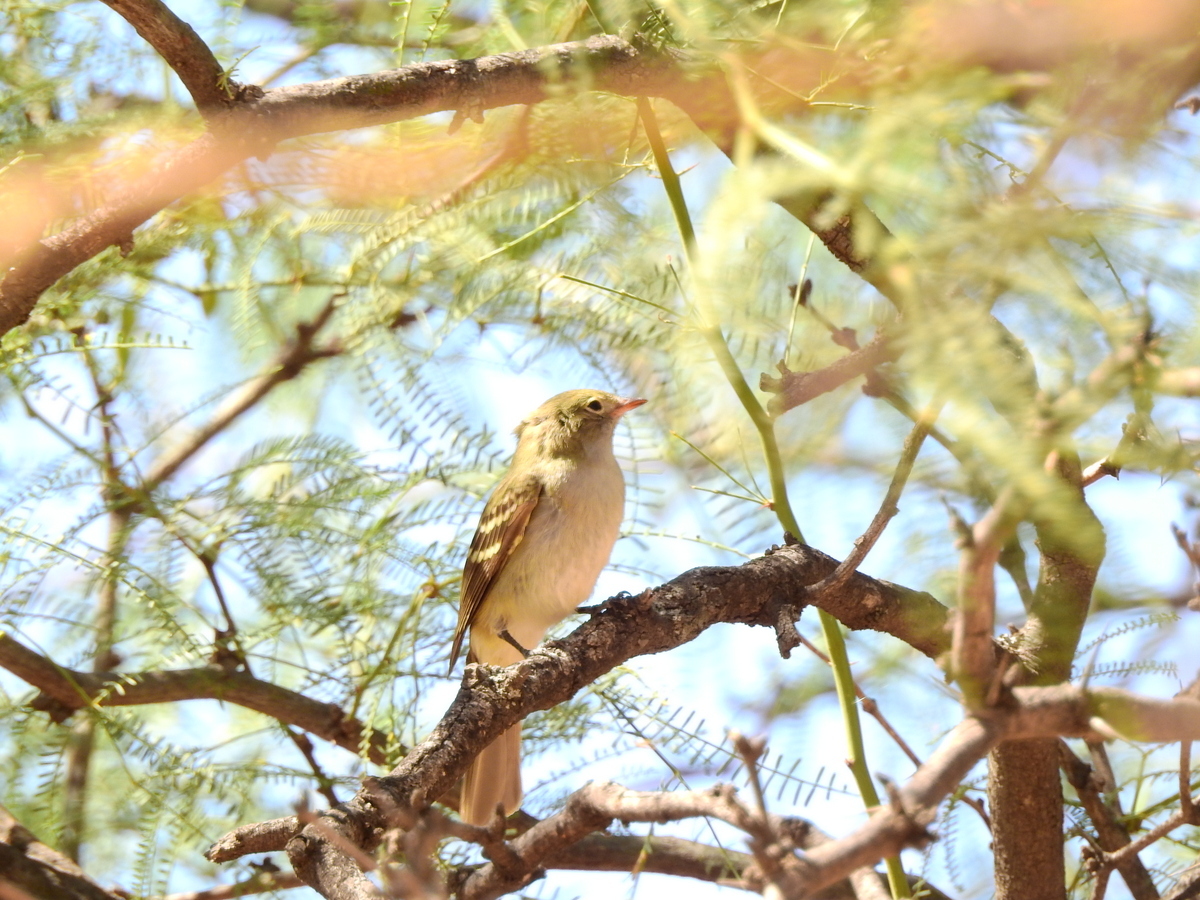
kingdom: Animalia
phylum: Chordata
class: Aves
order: Passeriformes
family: Tyrannidae
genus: Elaenia
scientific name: Elaenia parvirostris
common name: Small-billed elaenia
